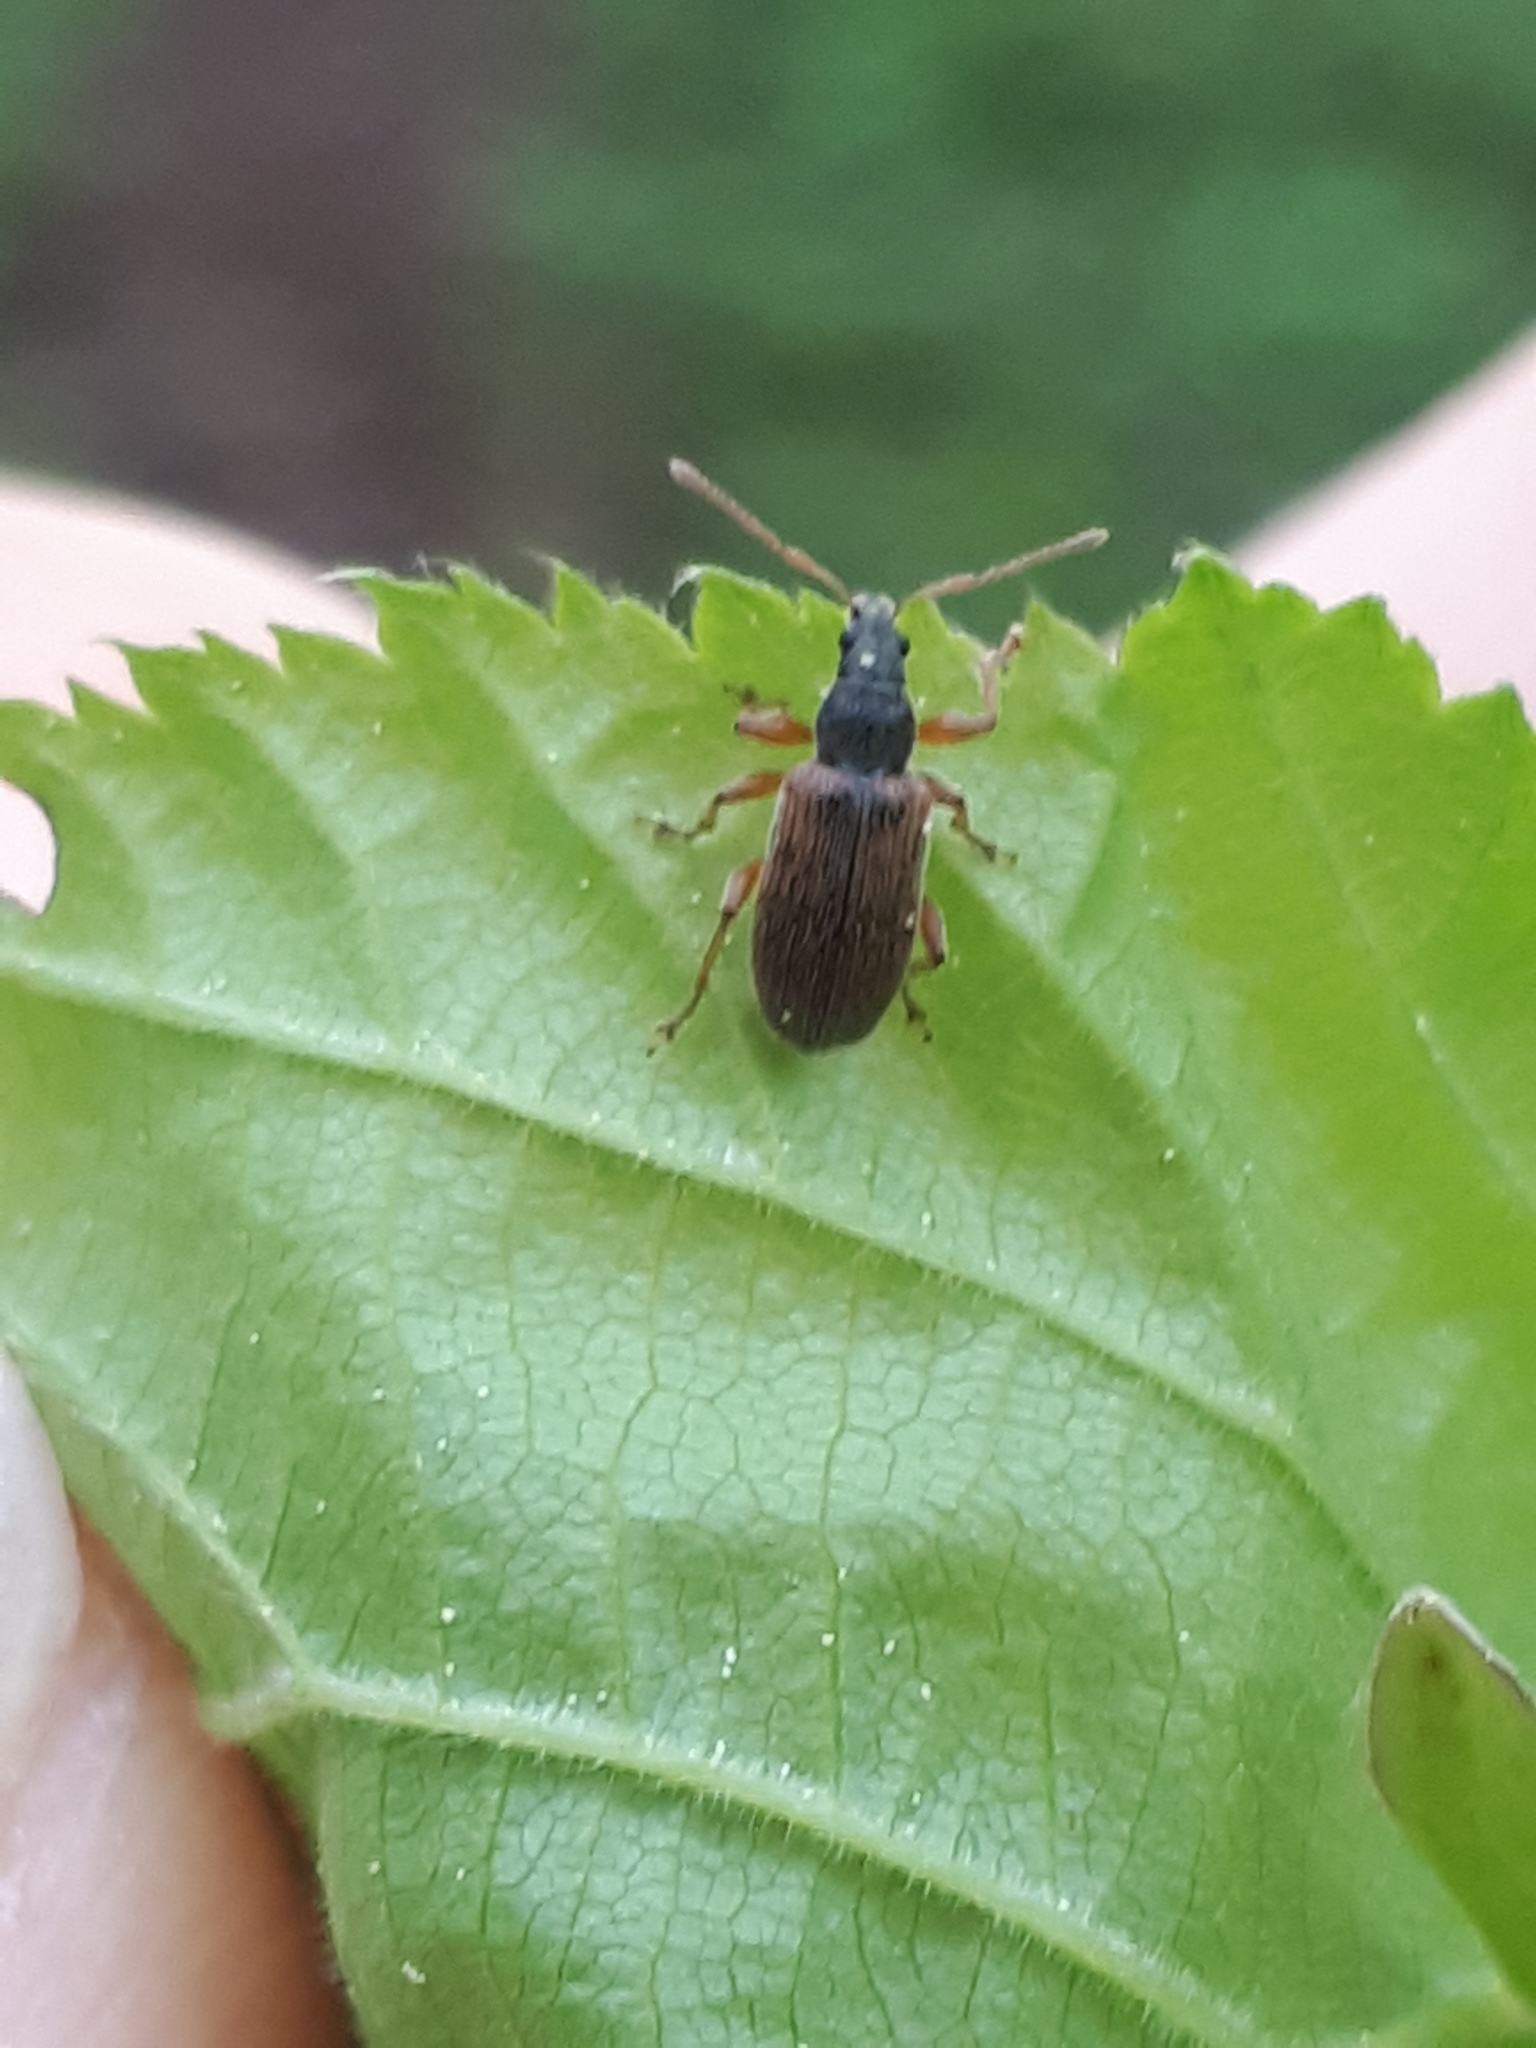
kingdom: Animalia
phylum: Arthropoda
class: Insecta
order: Coleoptera
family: Curculionidae
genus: Phyllobius
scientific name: Phyllobius oblongus
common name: Brown leaf weevil
